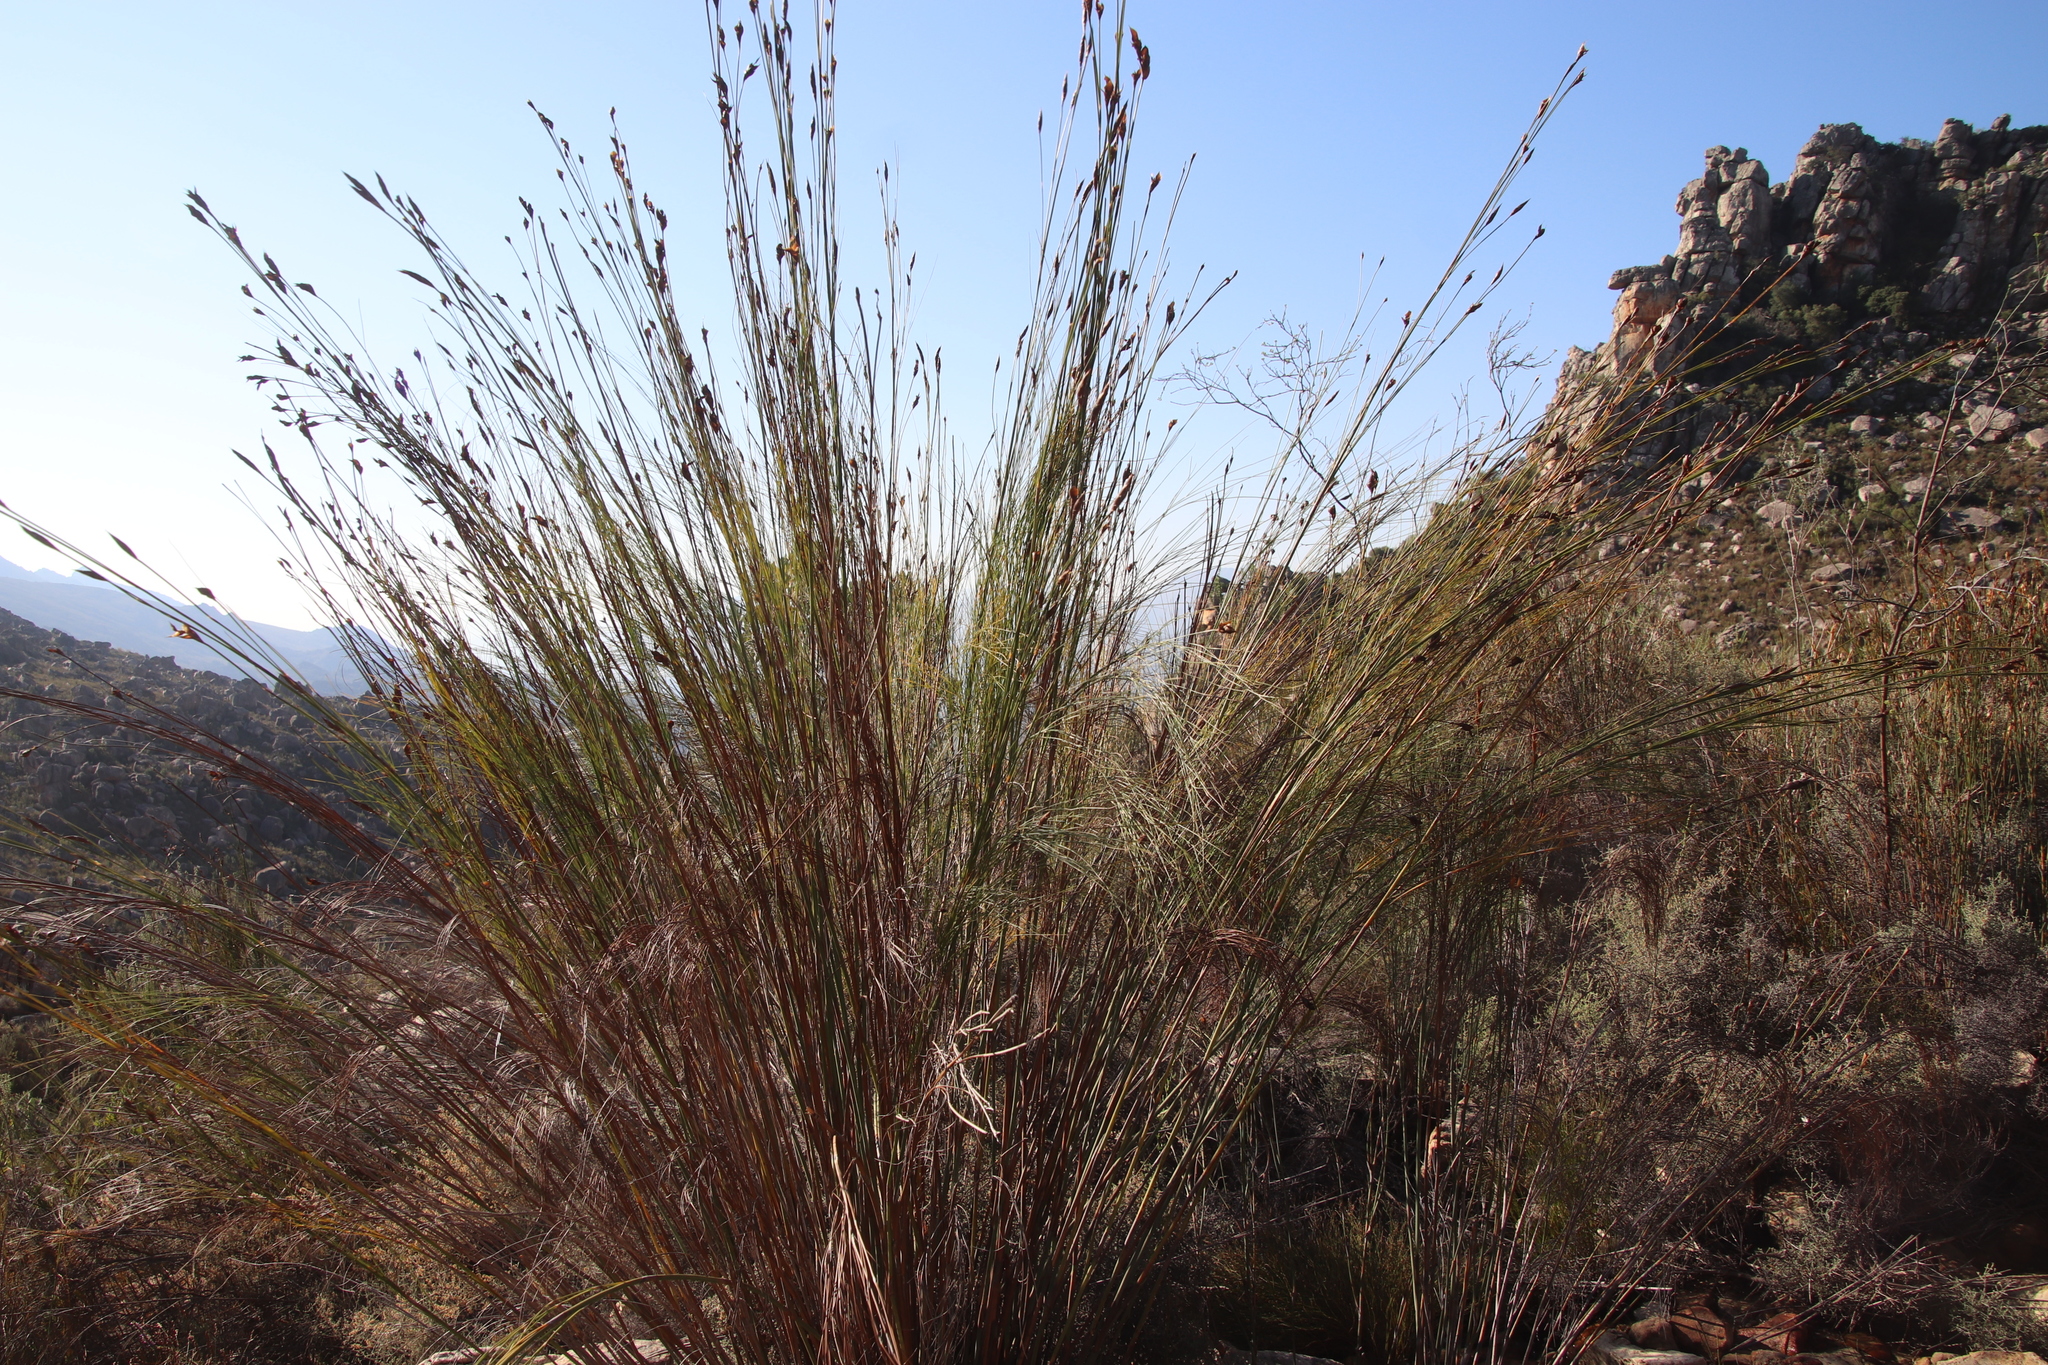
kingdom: Plantae
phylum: Tracheophyta
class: Liliopsida
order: Poales
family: Restionaceae
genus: Cannomois
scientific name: Cannomois robusta
